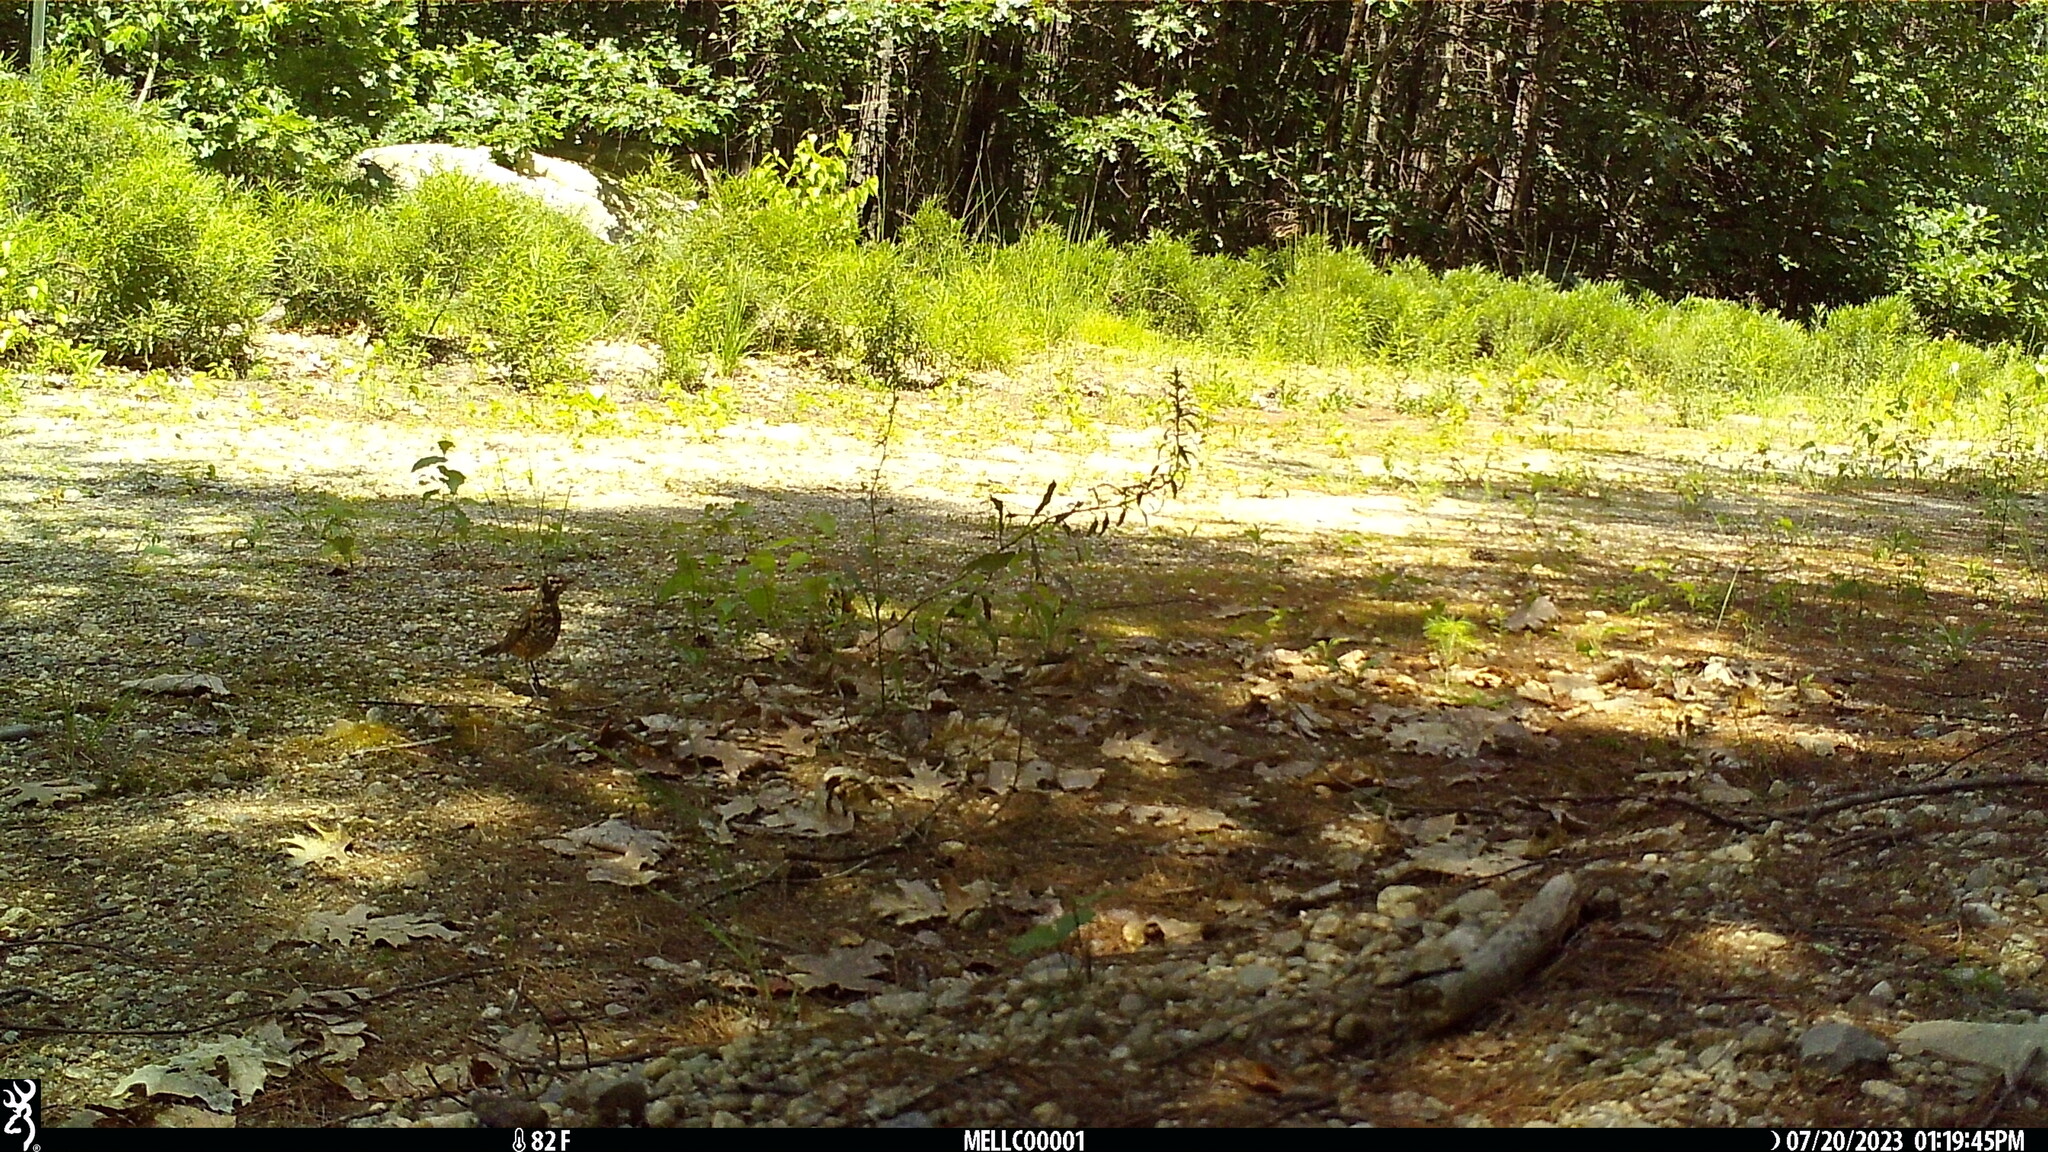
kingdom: Animalia
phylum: Chordata
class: Aves
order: Passeriformes
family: Turdidae
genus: Turdus
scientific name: Turdus migratorius
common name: American robin
